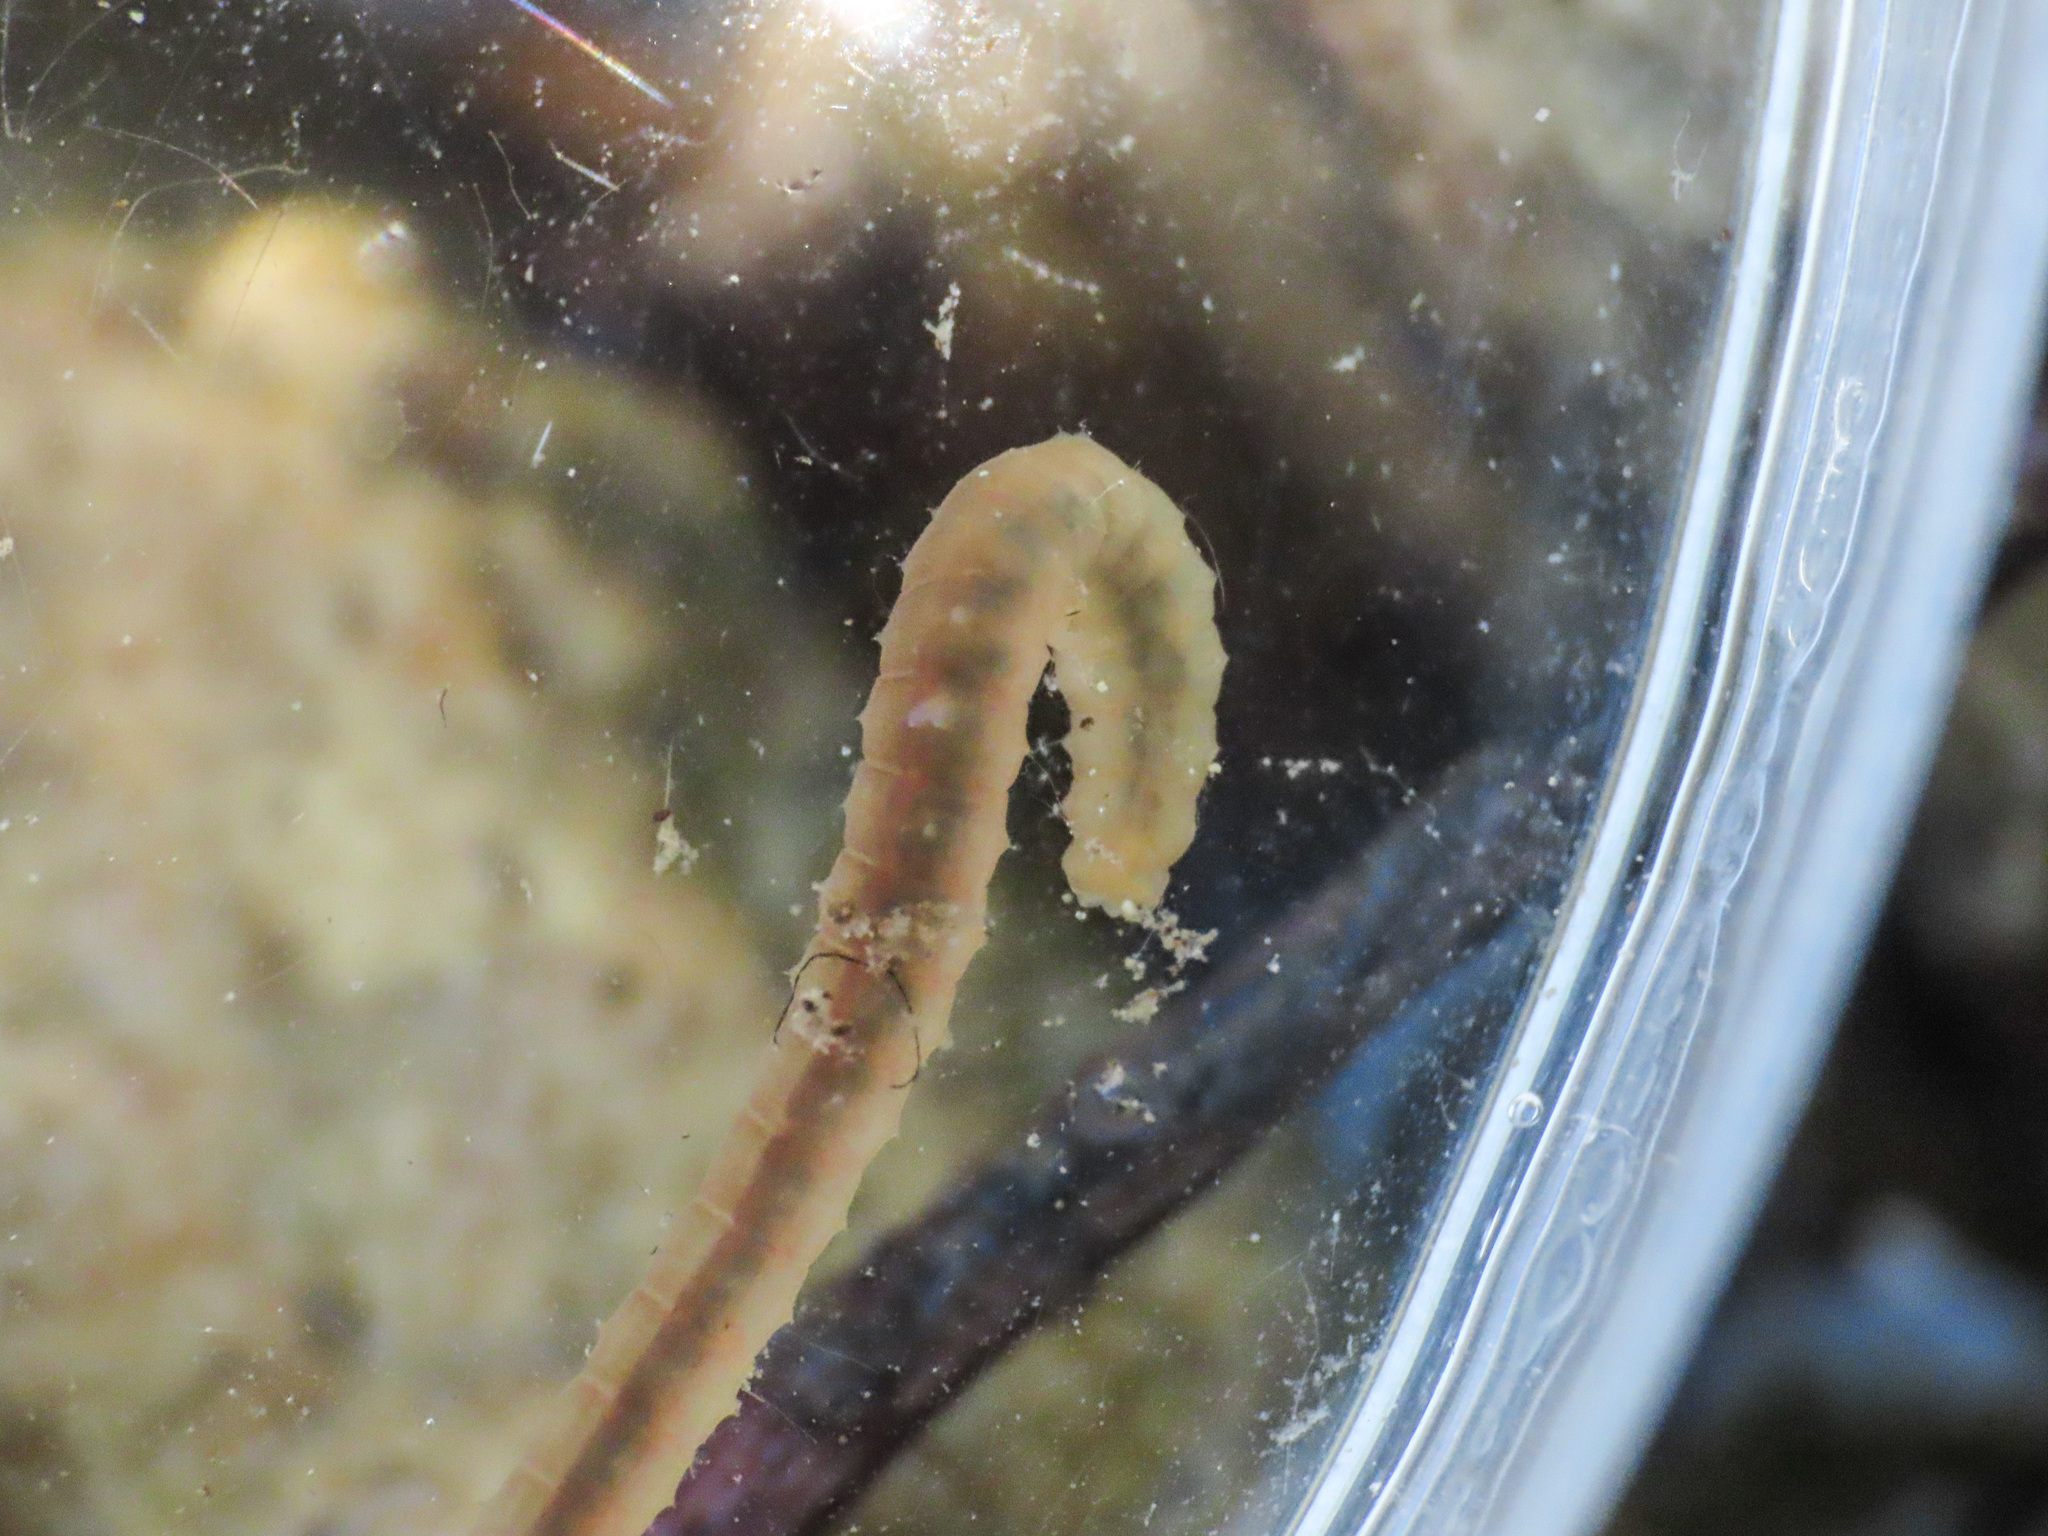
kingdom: Animalia
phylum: Annelida
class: Clitellata
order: Crassiclitellata
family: Lumbricidae
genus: Eiseniella
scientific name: Eiseniella tetraedra
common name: Square-tailed worm
